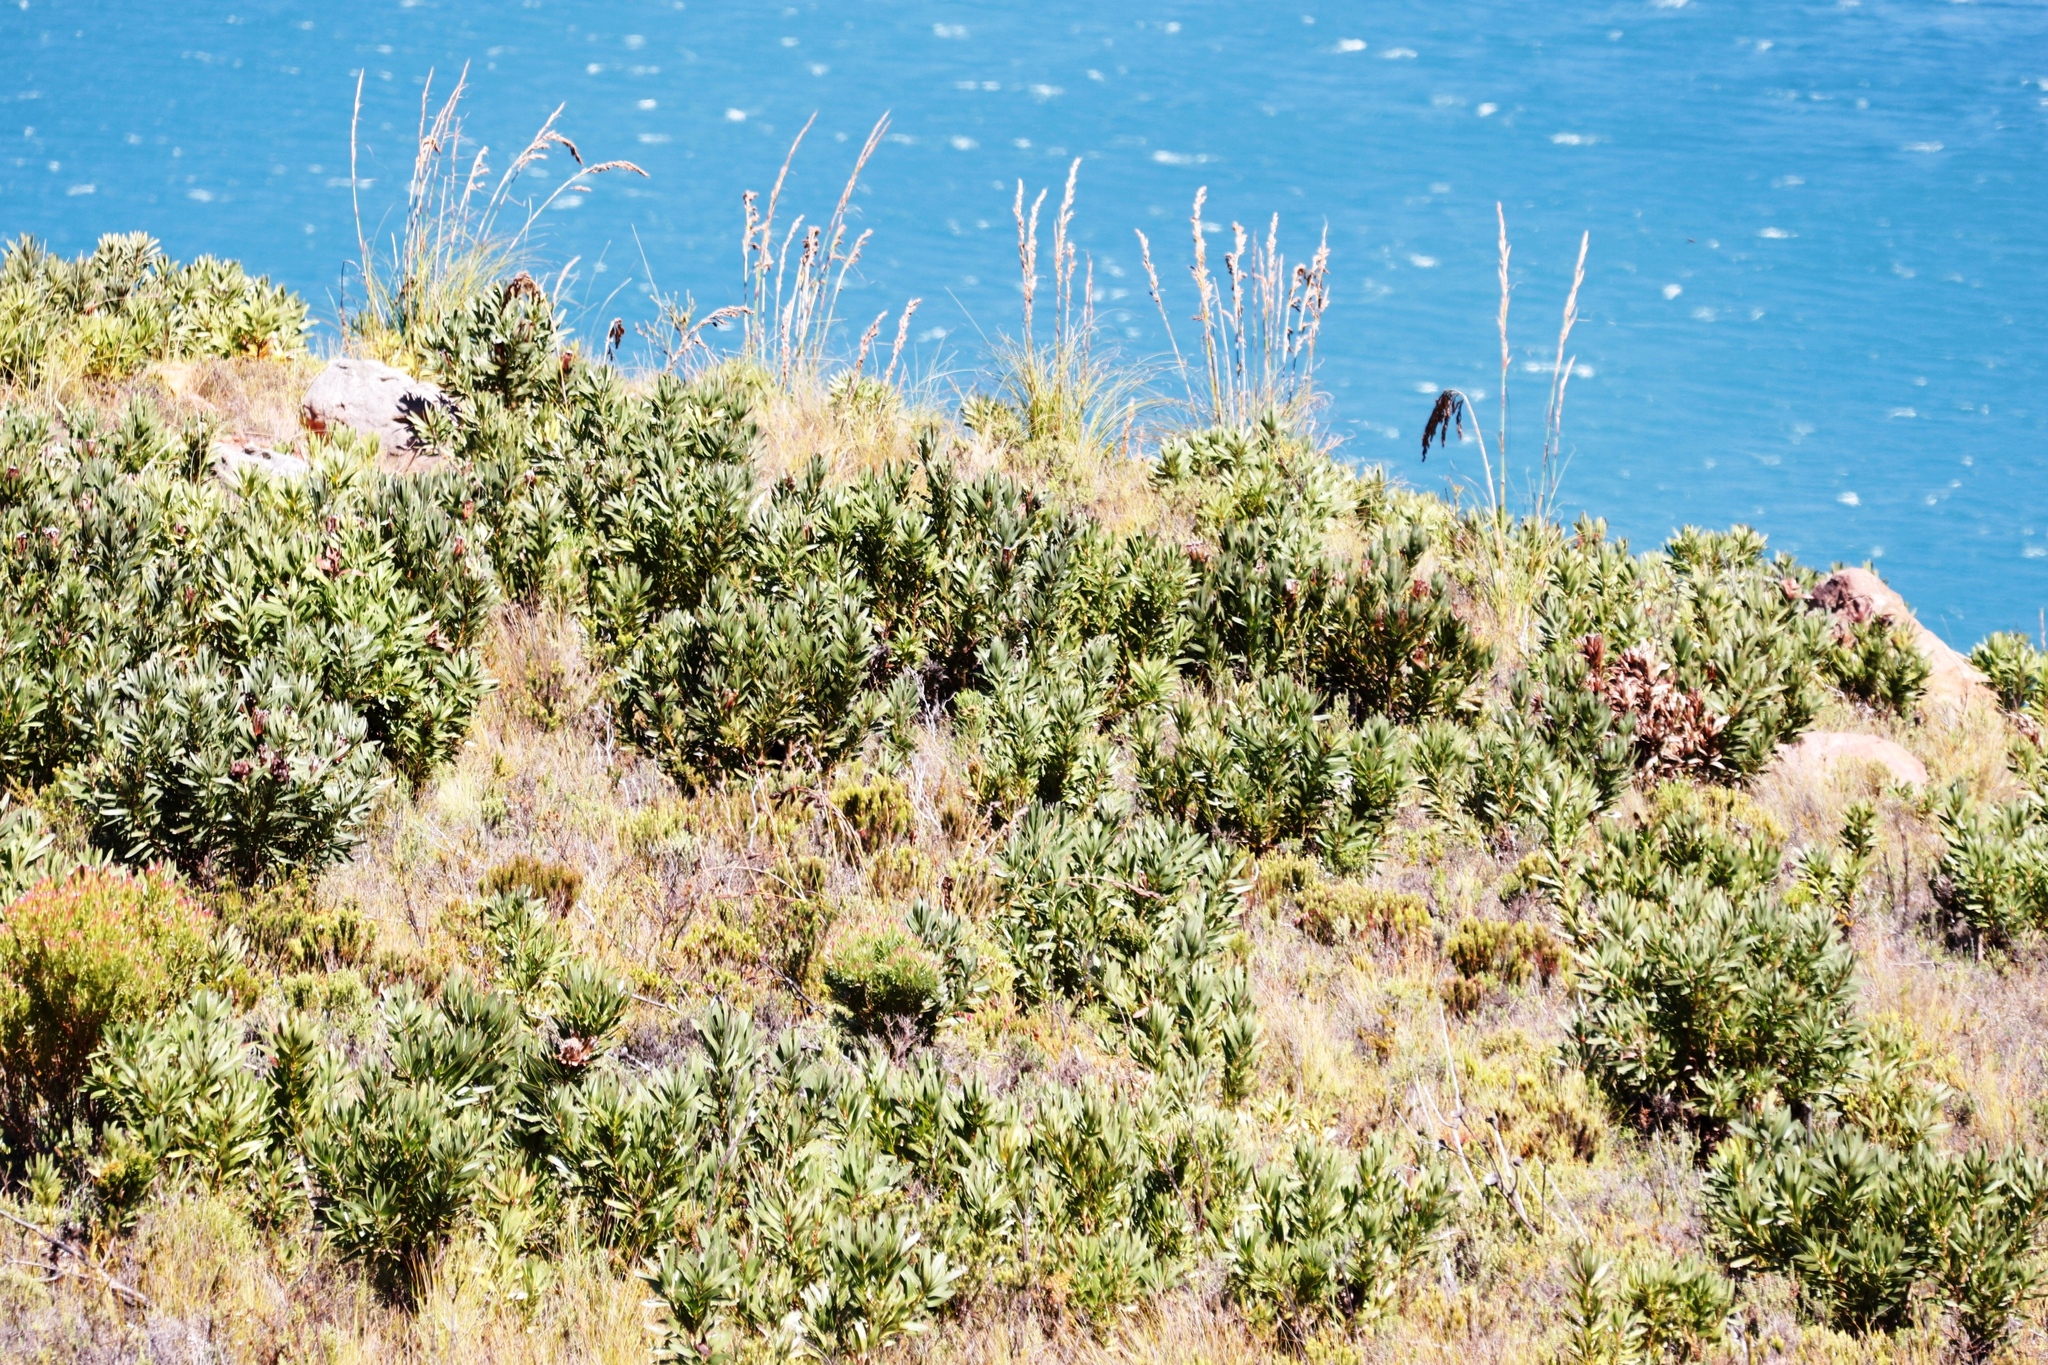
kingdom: Plantae
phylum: Tracheophyta
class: Liliopsida
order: Poales
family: Cyperaceae
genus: Tetraria
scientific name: Tetraria involucrata
